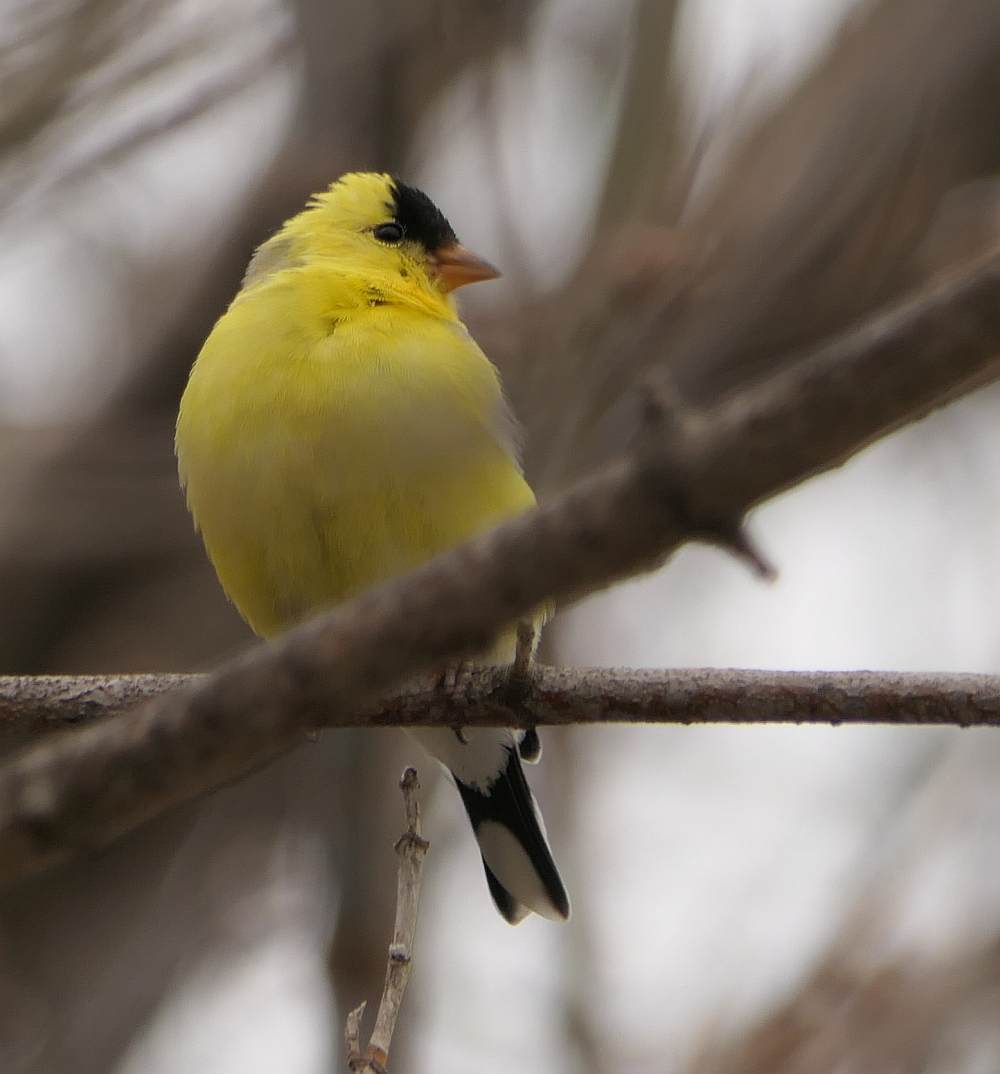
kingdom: Animalia
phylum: Chordata
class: Aves
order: Passeriformes
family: Fringillidae
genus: Spinus
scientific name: Spinus tristis
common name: American goldfinch
